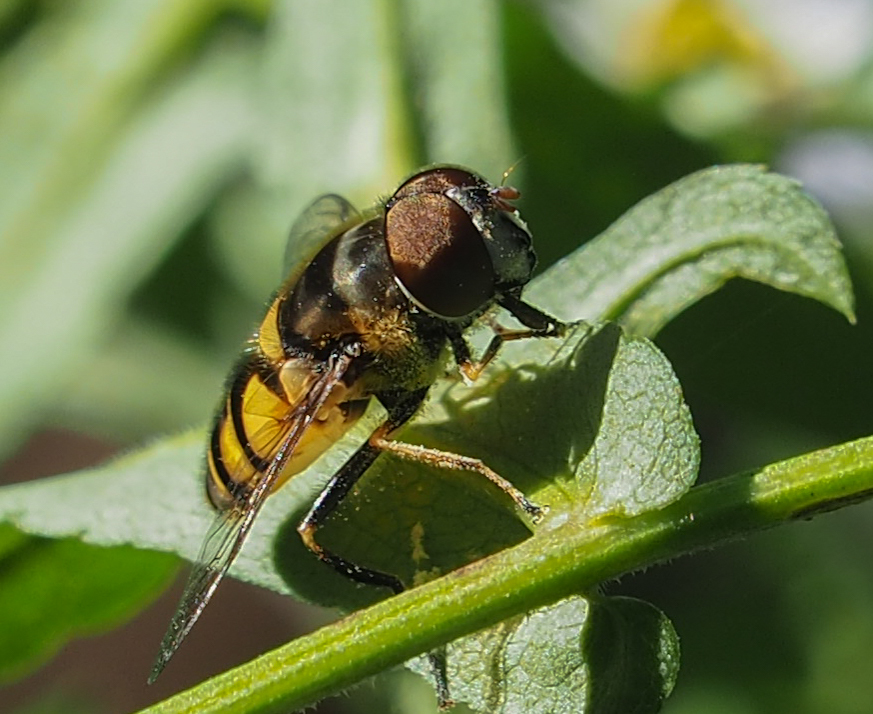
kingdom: Animalia
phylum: Arthropoda
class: Insecta
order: Diptera
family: Syrphidae
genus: Eristalis
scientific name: Eristalis transversa
